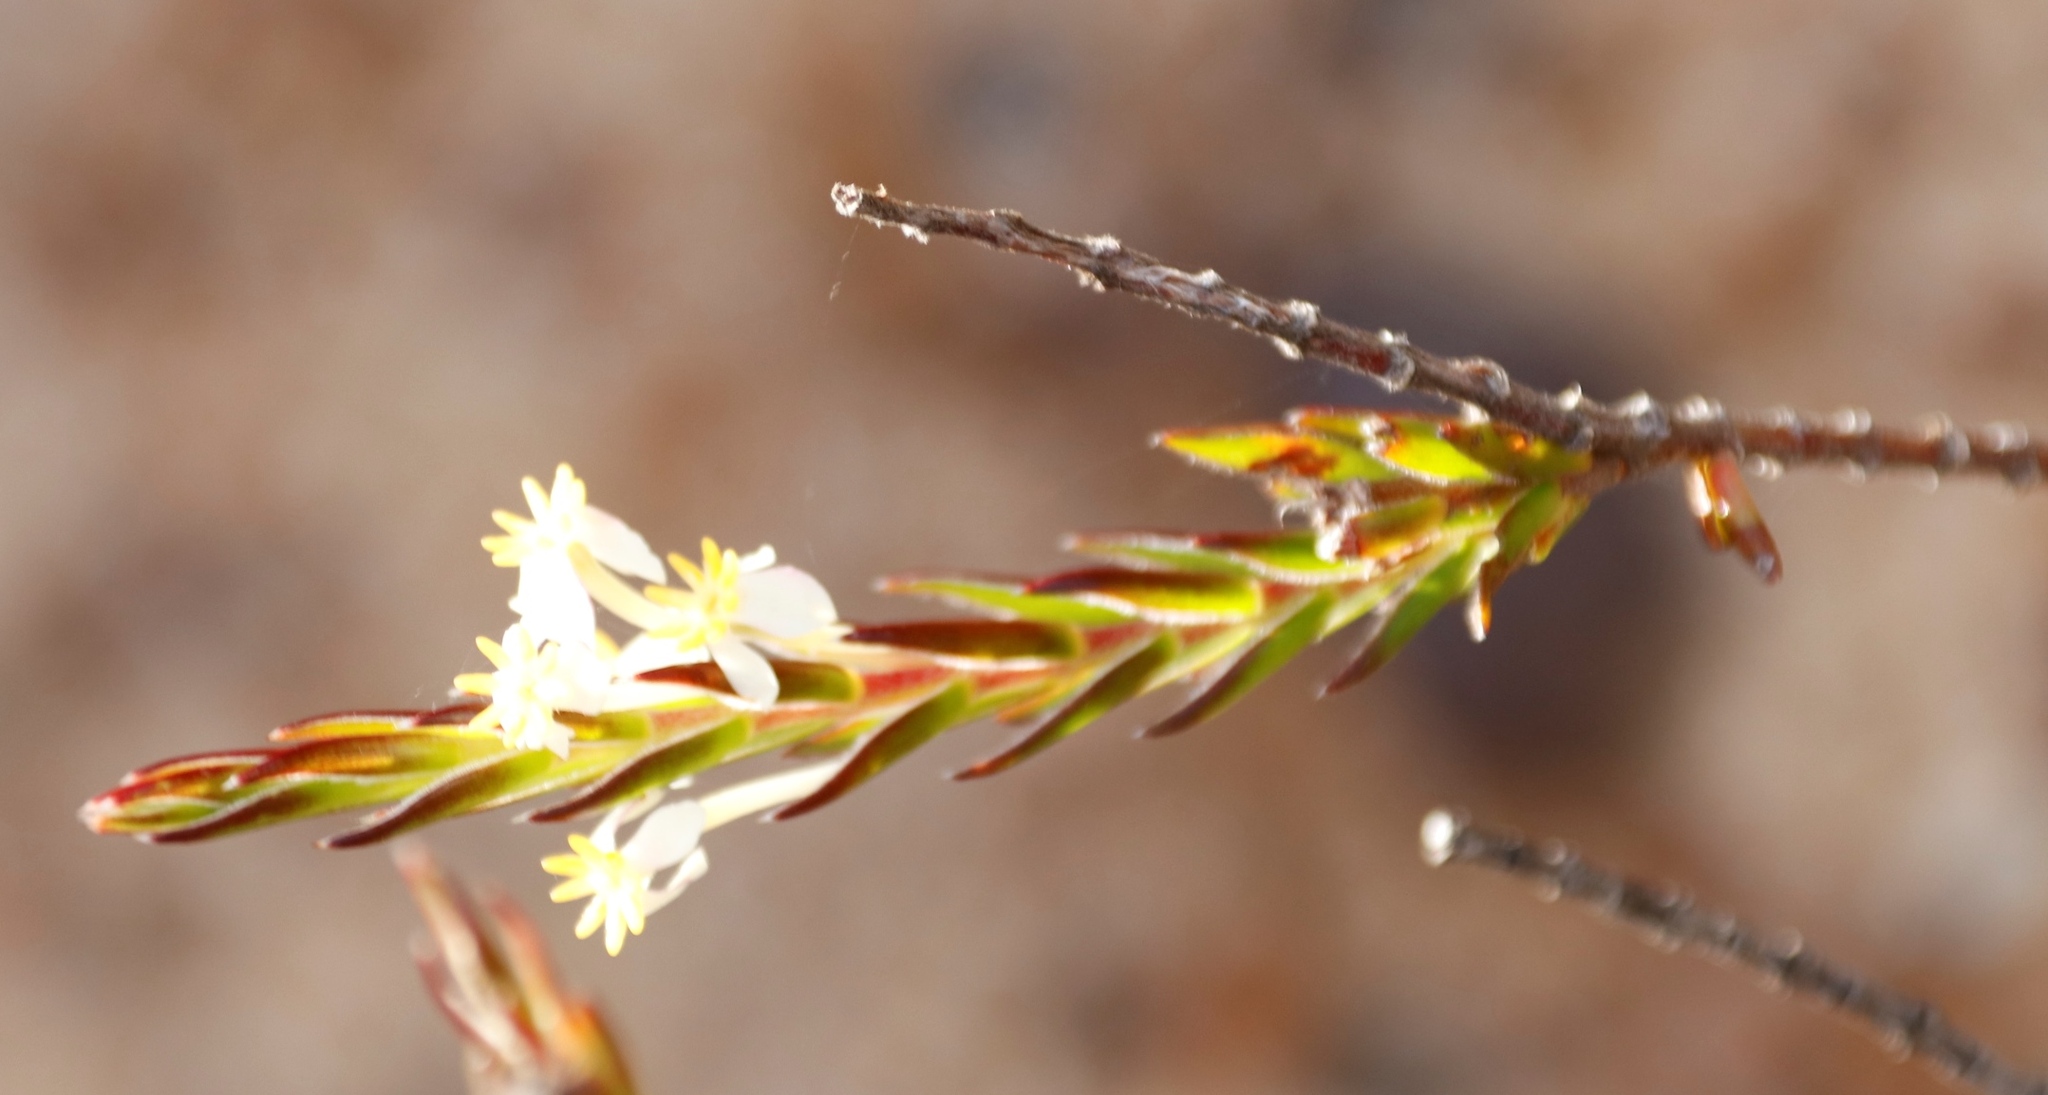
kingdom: Plantae
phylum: Tracheophyta
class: Magnoliopsida
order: Malvales
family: Thymelaeaceae
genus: Struthiola
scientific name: Struthiola ciliata
